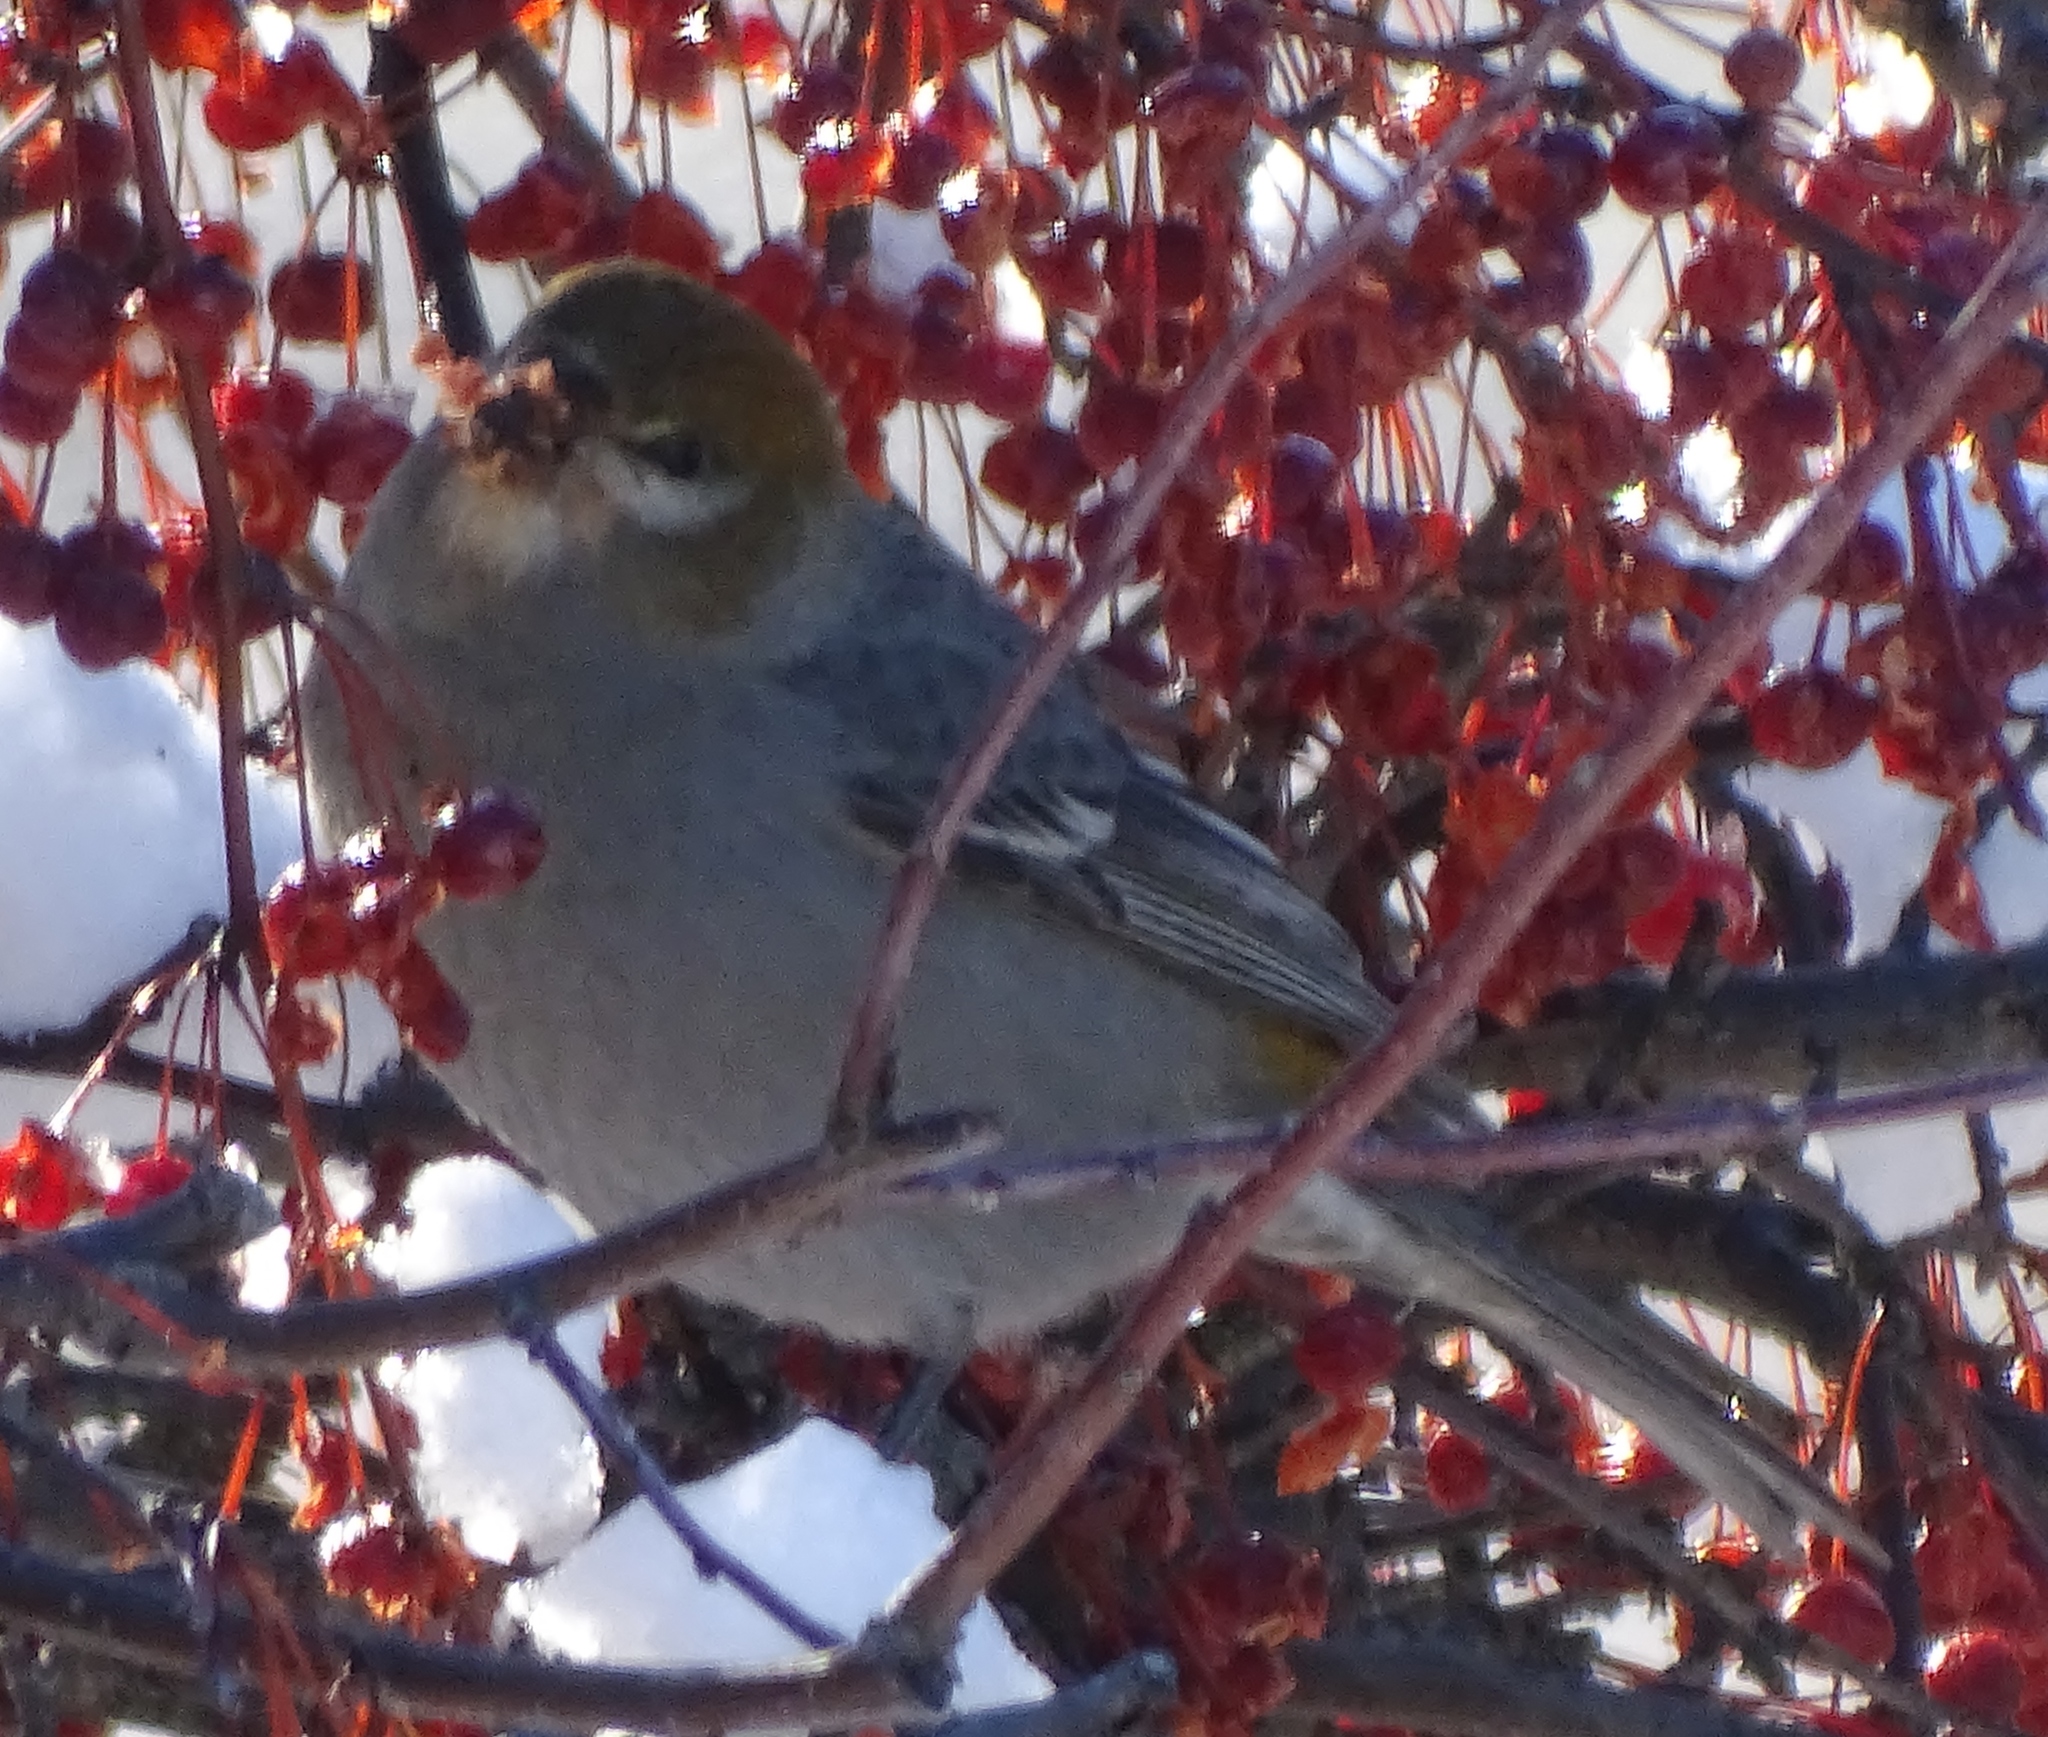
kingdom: Animalia
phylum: Chordata
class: Aves
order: Passeriformes
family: Fringillidae
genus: Pinicola
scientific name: Pinicola enucleator
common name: Pine grosbeak
